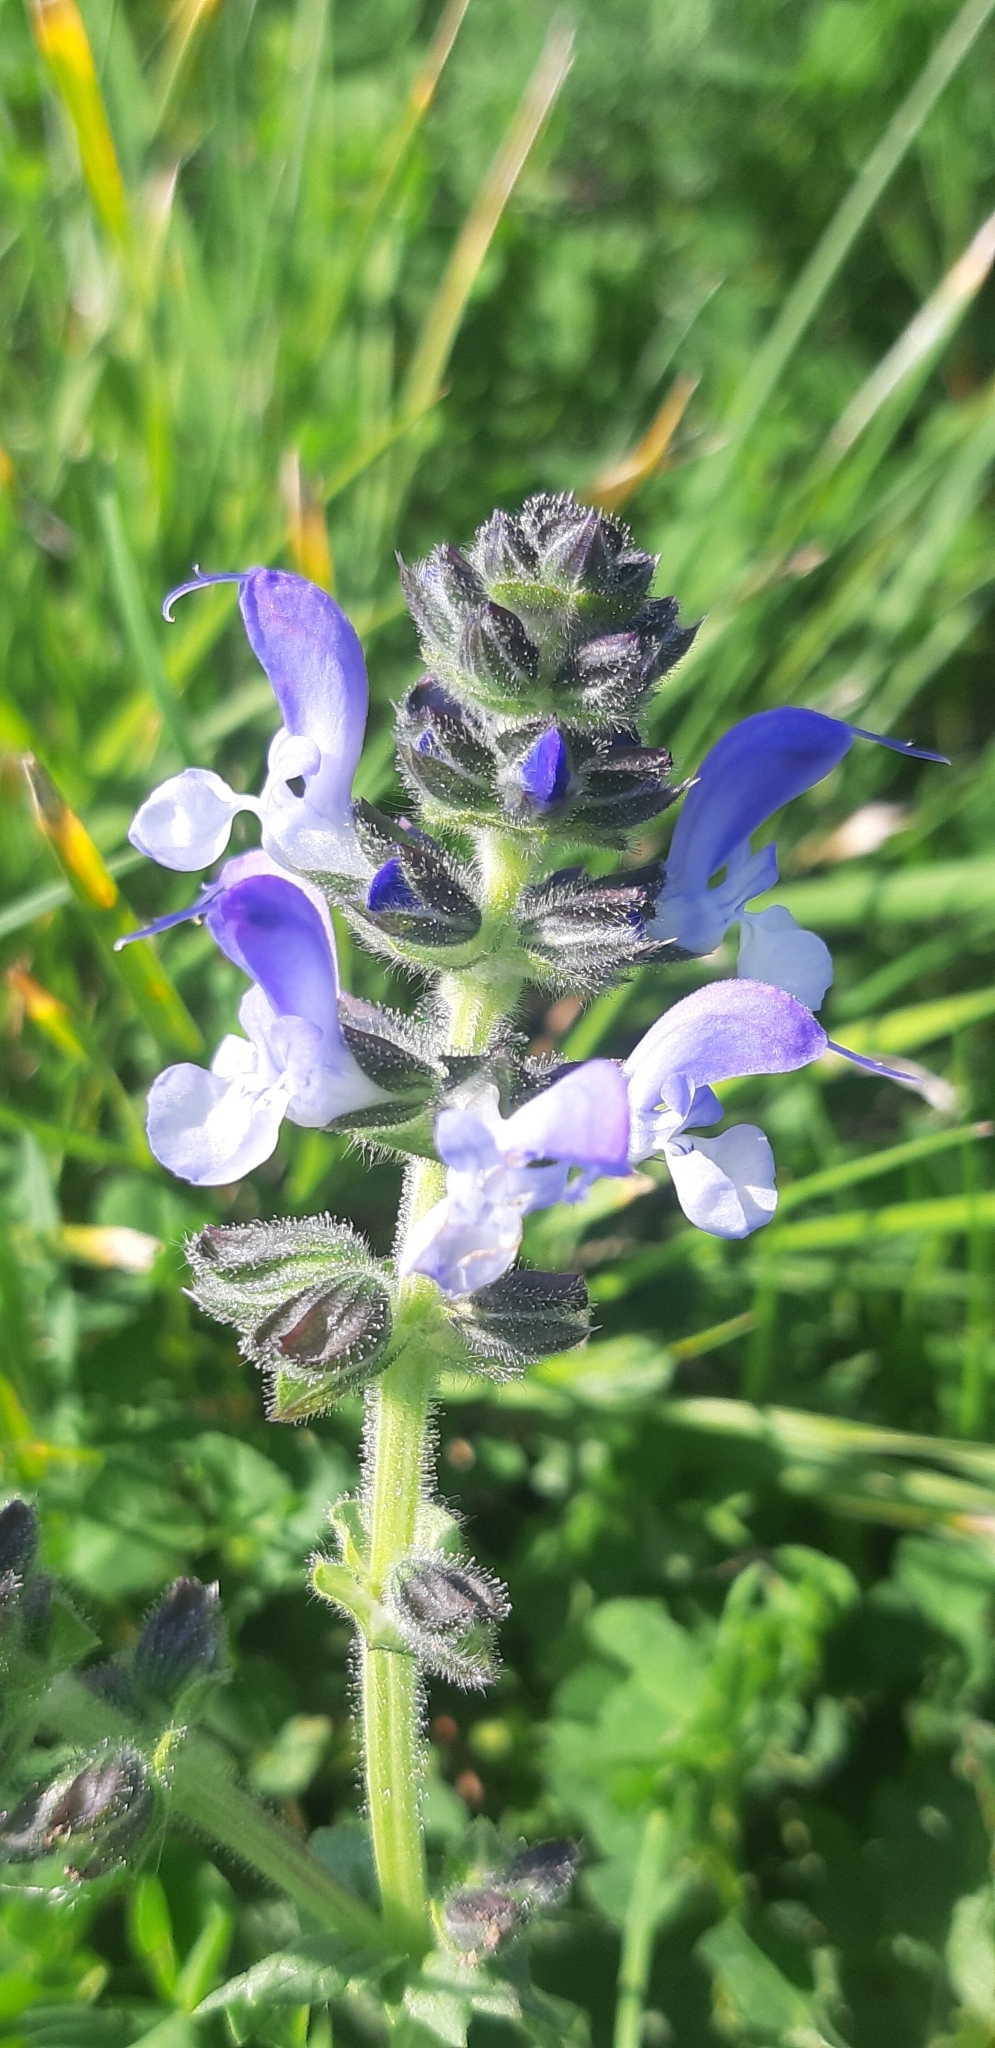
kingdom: Plantae
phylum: Tracheophyta
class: Magnoliopsida
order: Lamiales
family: Lamiaceae
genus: Salvia
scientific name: Salvia clandestina
